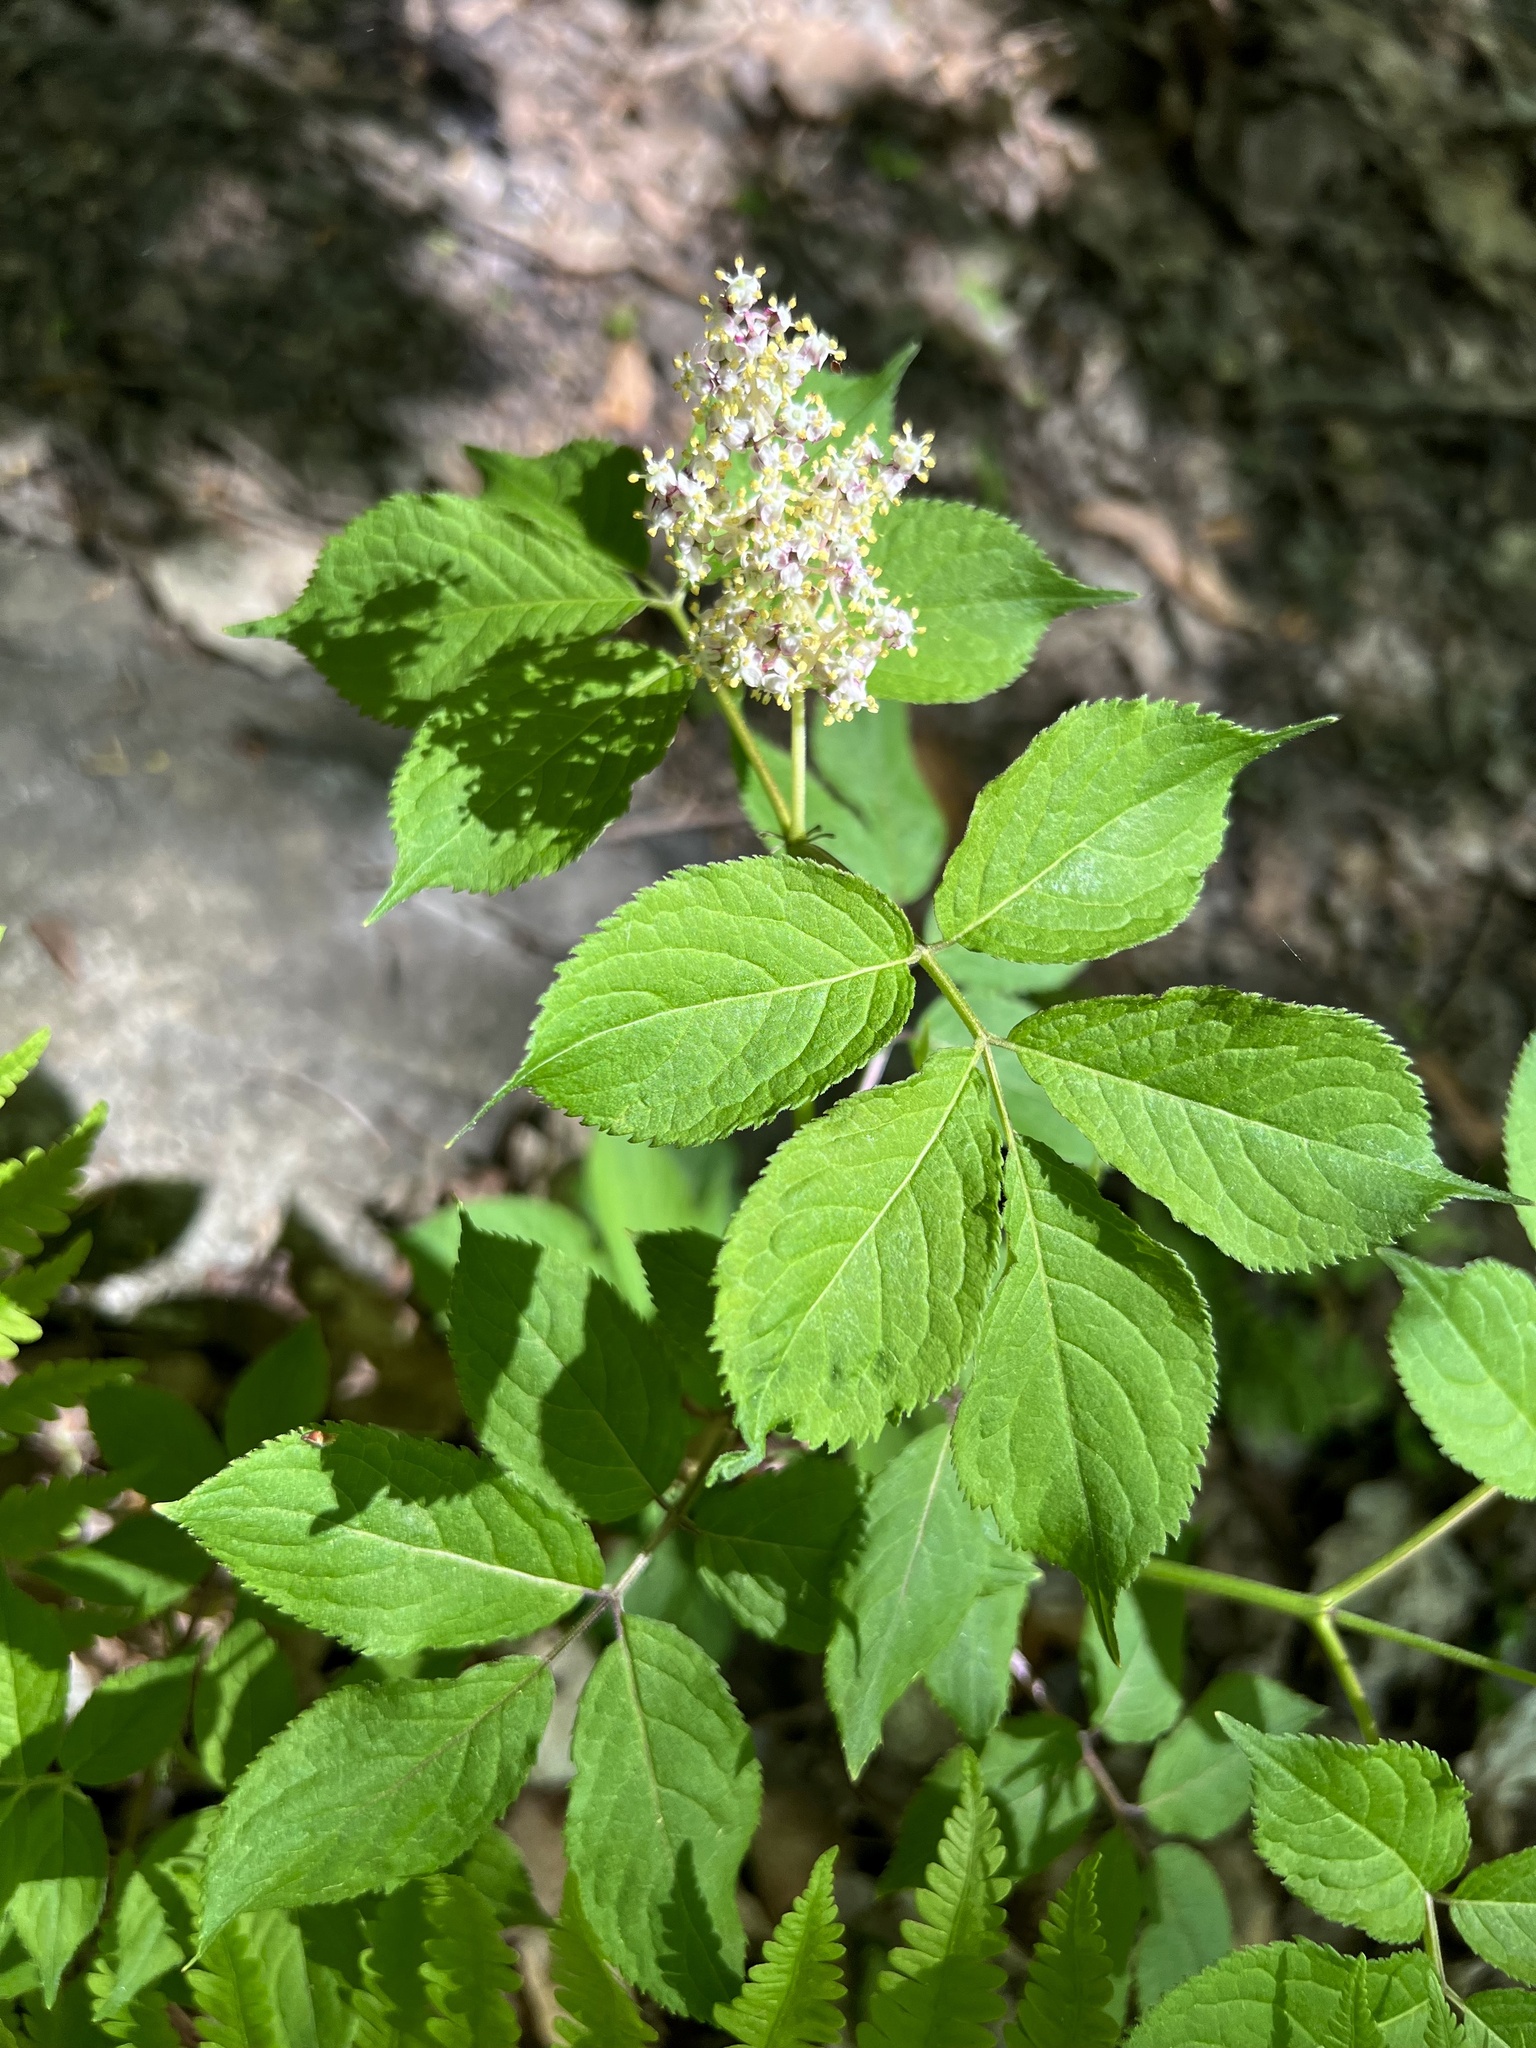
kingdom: Plantae
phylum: Tracheophyta
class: Magnoliopsida
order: Dipsacales
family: Viburnaceae
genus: Sambucus
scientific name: Sambucus racemosa
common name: Red-berried elder
